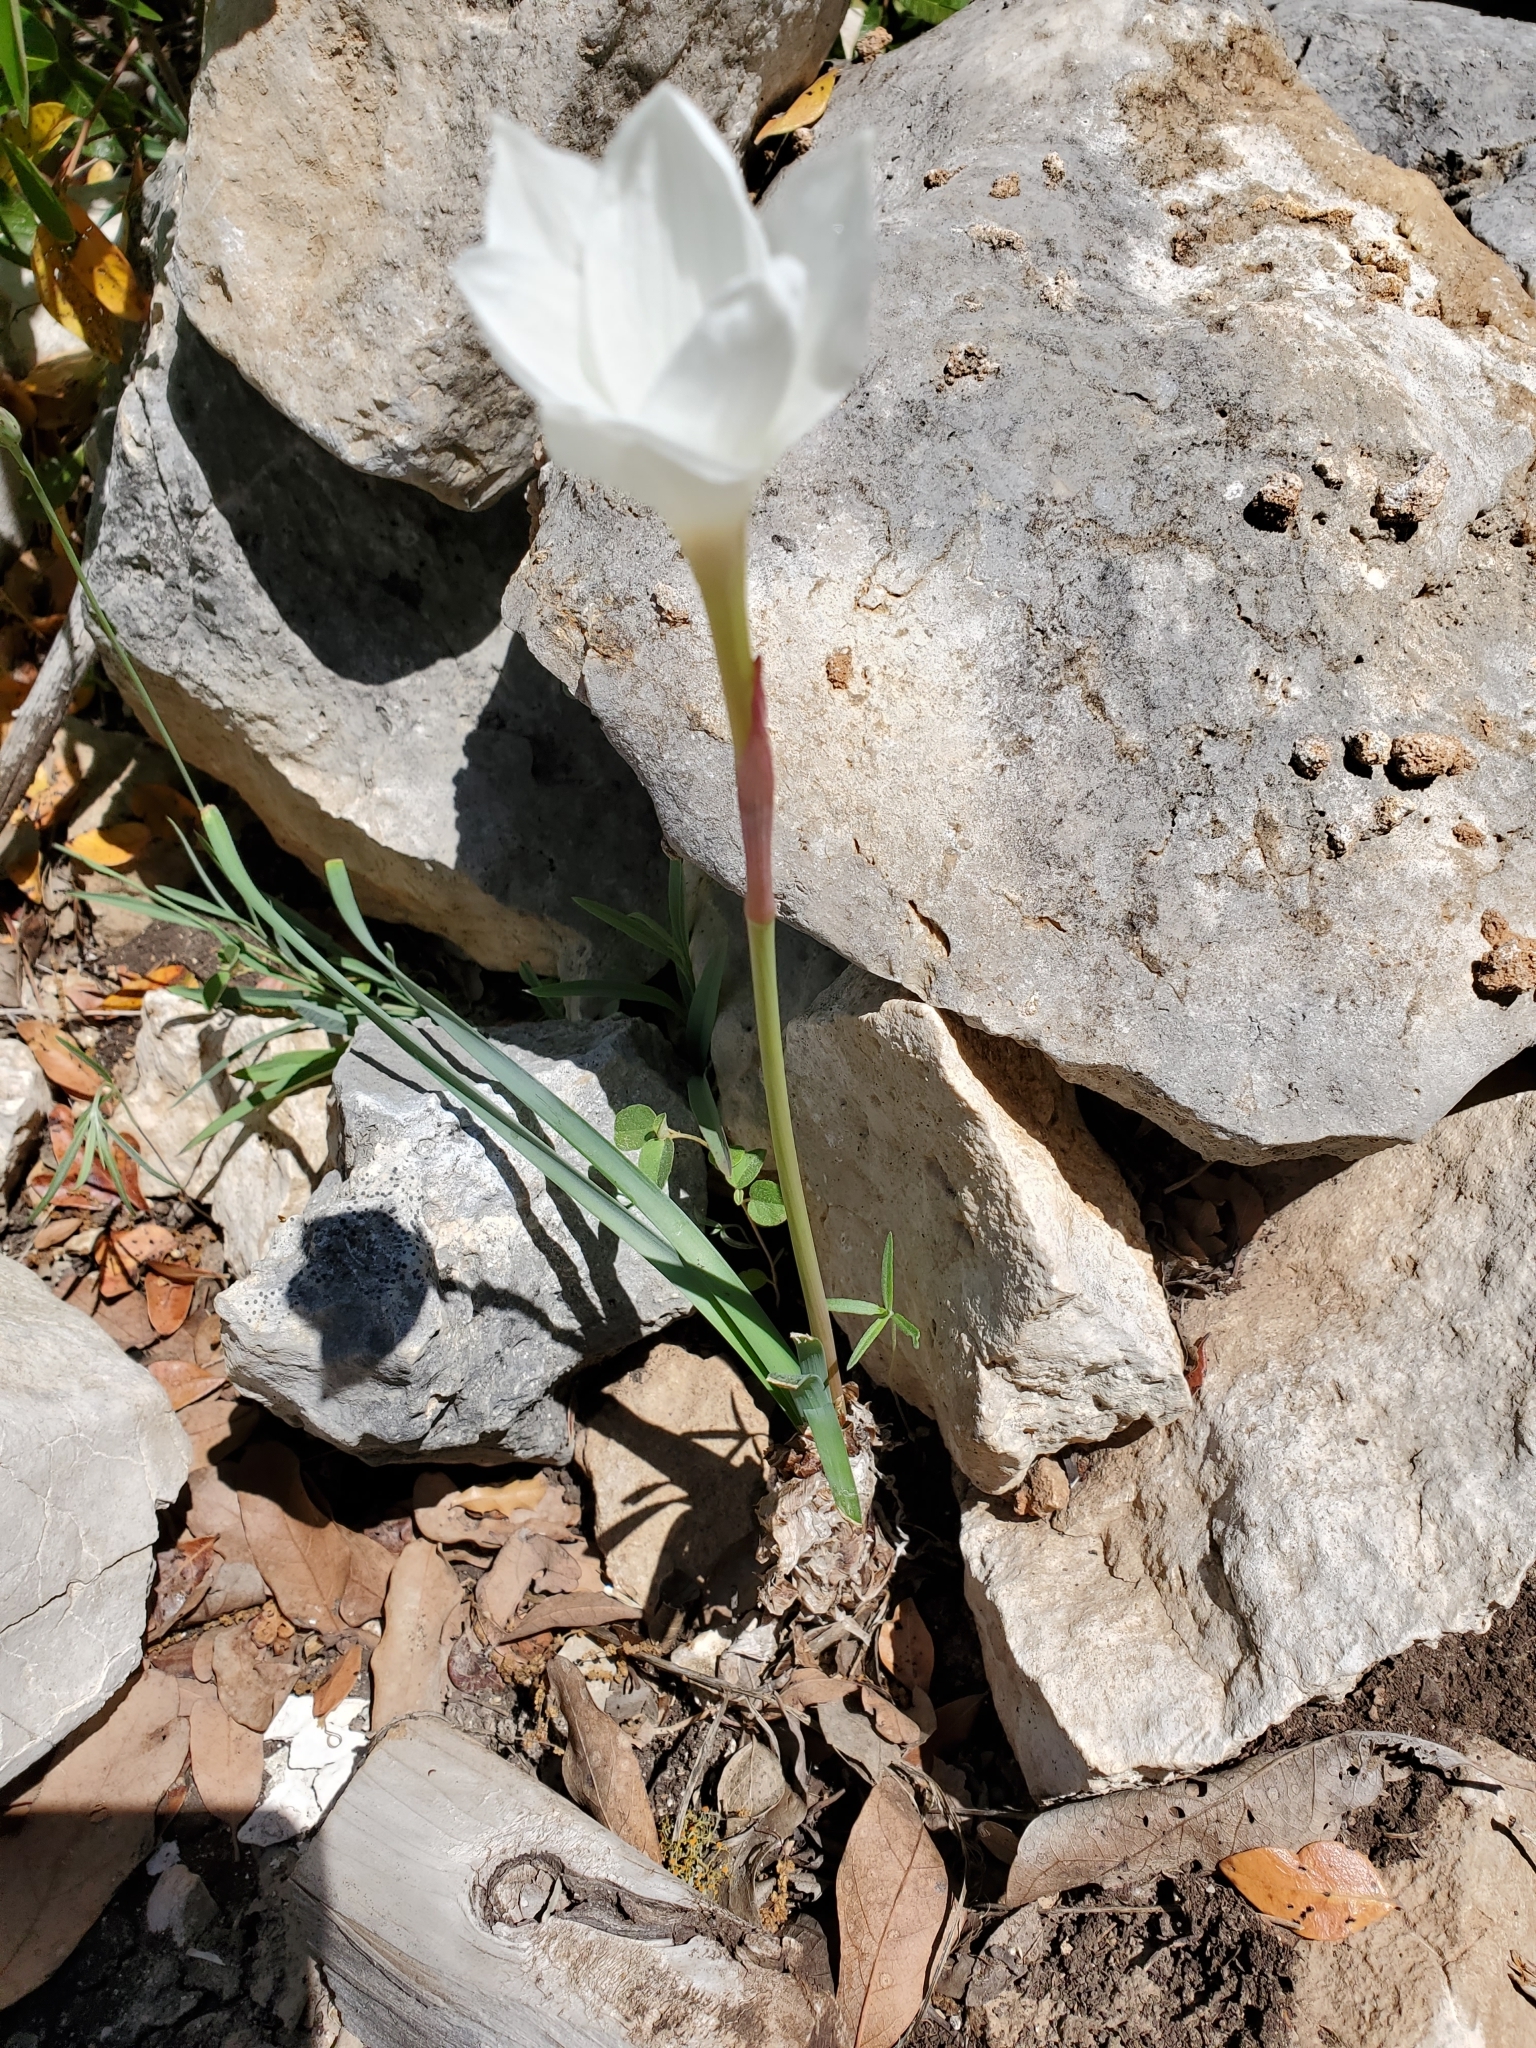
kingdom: Plantae
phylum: Tracheophyta
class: Liliopsida
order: Asparagales
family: Amaryllidaceae
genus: Zephyranthes
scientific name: Zephyranthes drummondii
